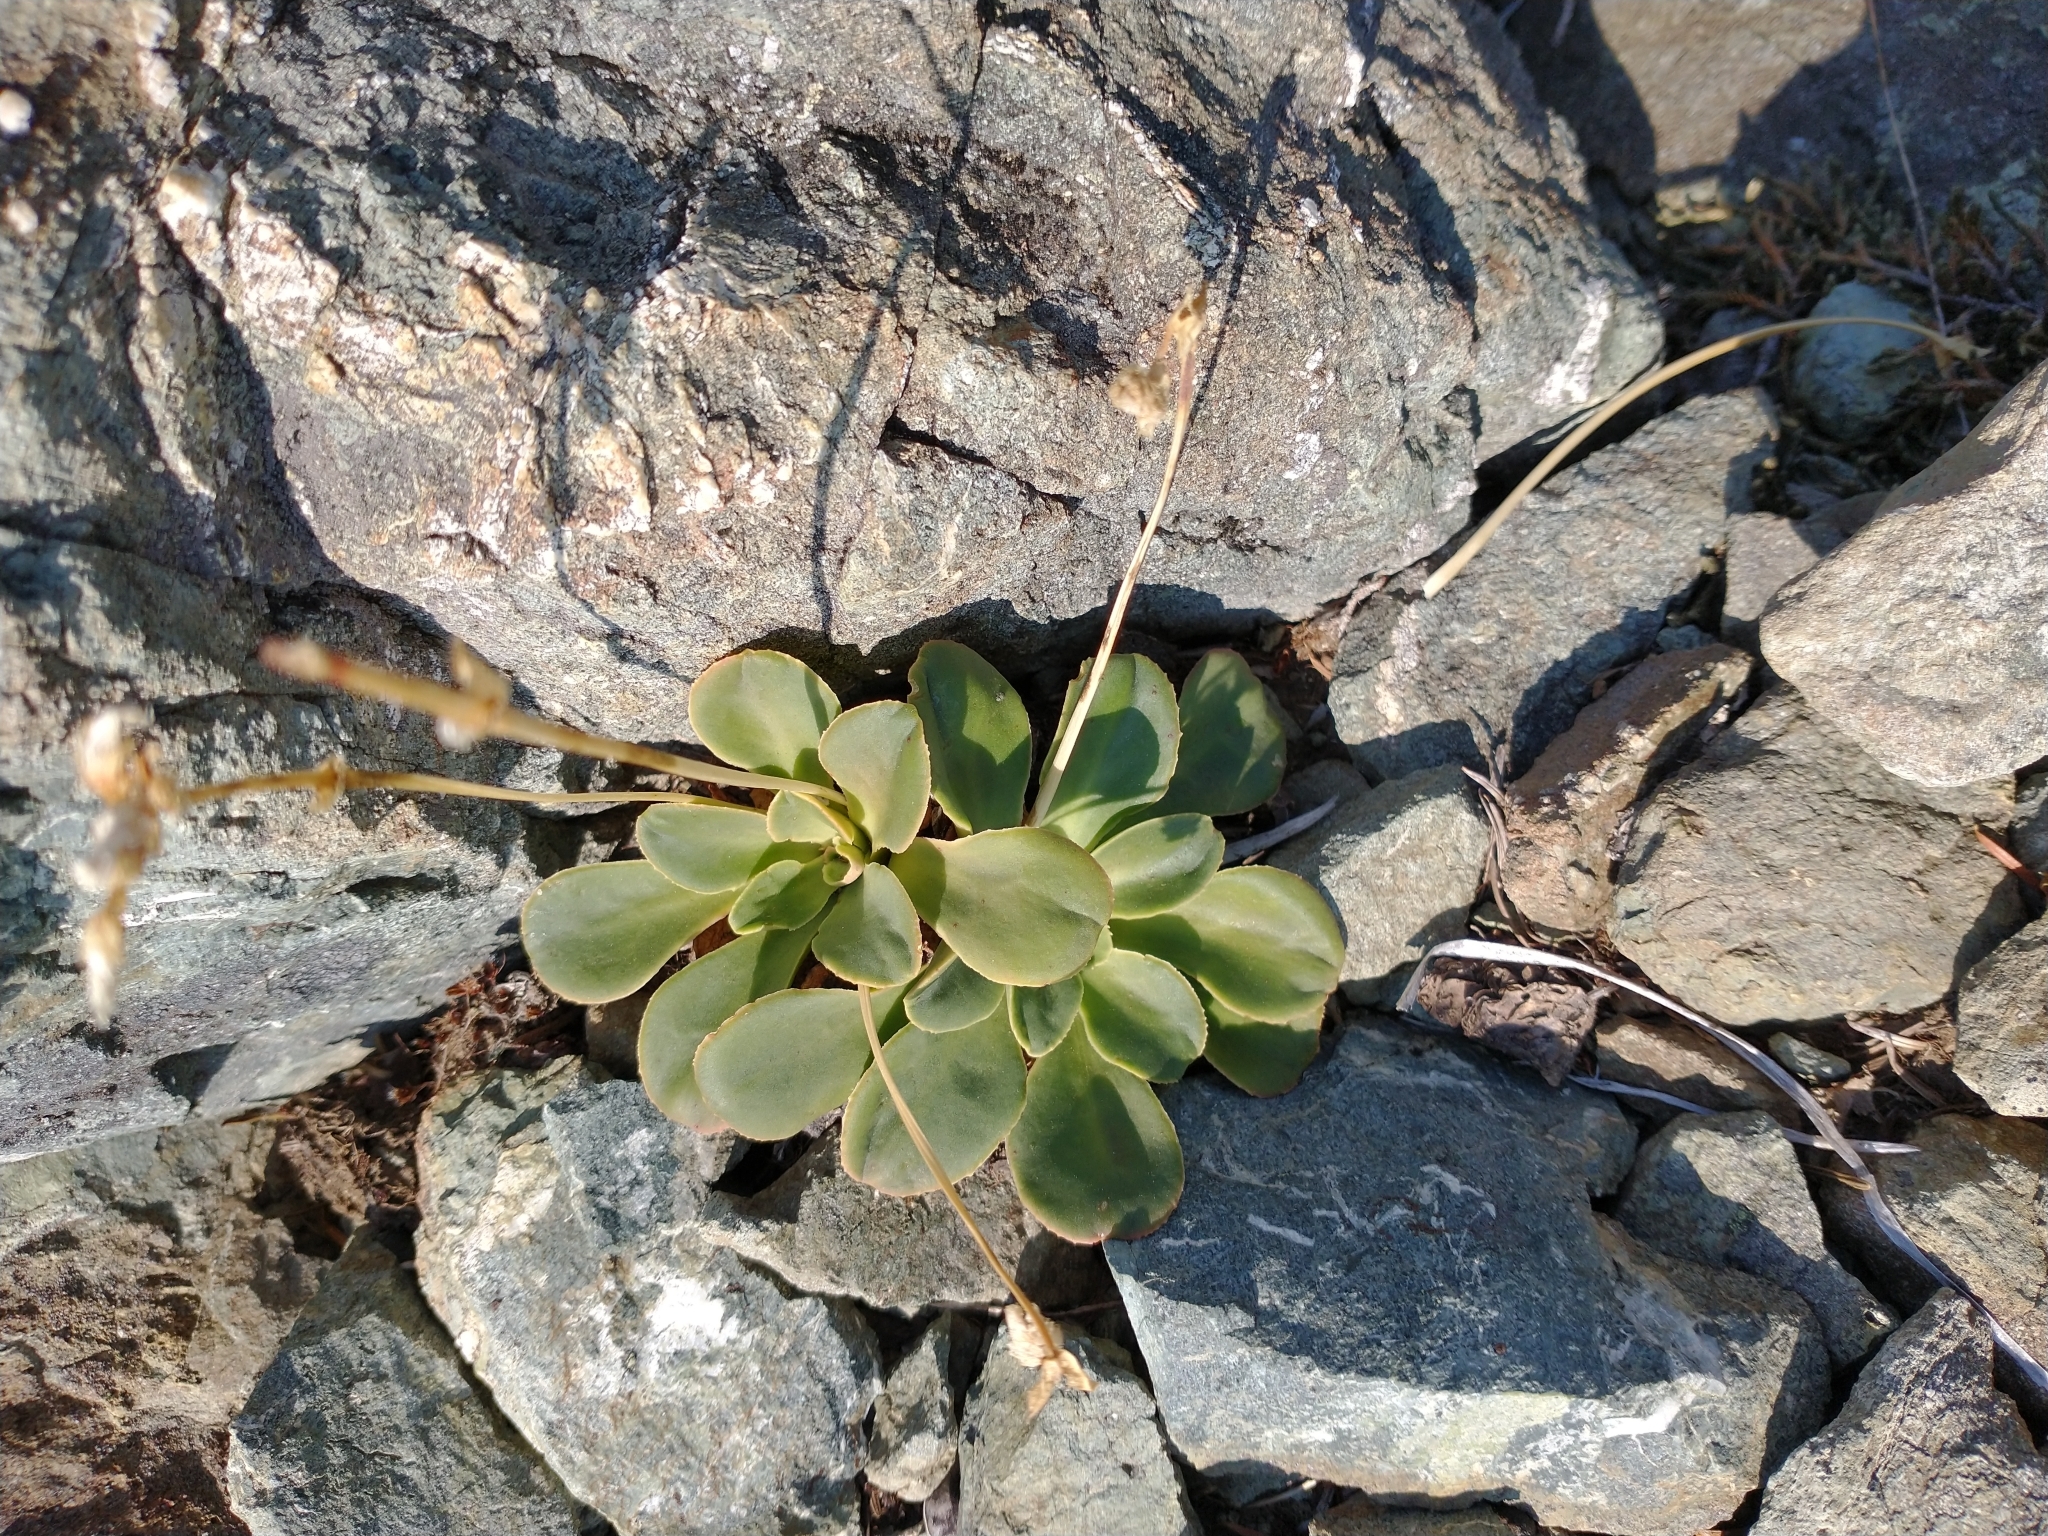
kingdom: Plantae
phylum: Tracheophyta
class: Magnoliopsida
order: Caryophyllales
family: Montiaceae
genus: Lewisia
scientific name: Lewisia cotyledon
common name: Siskiyou lewisia
